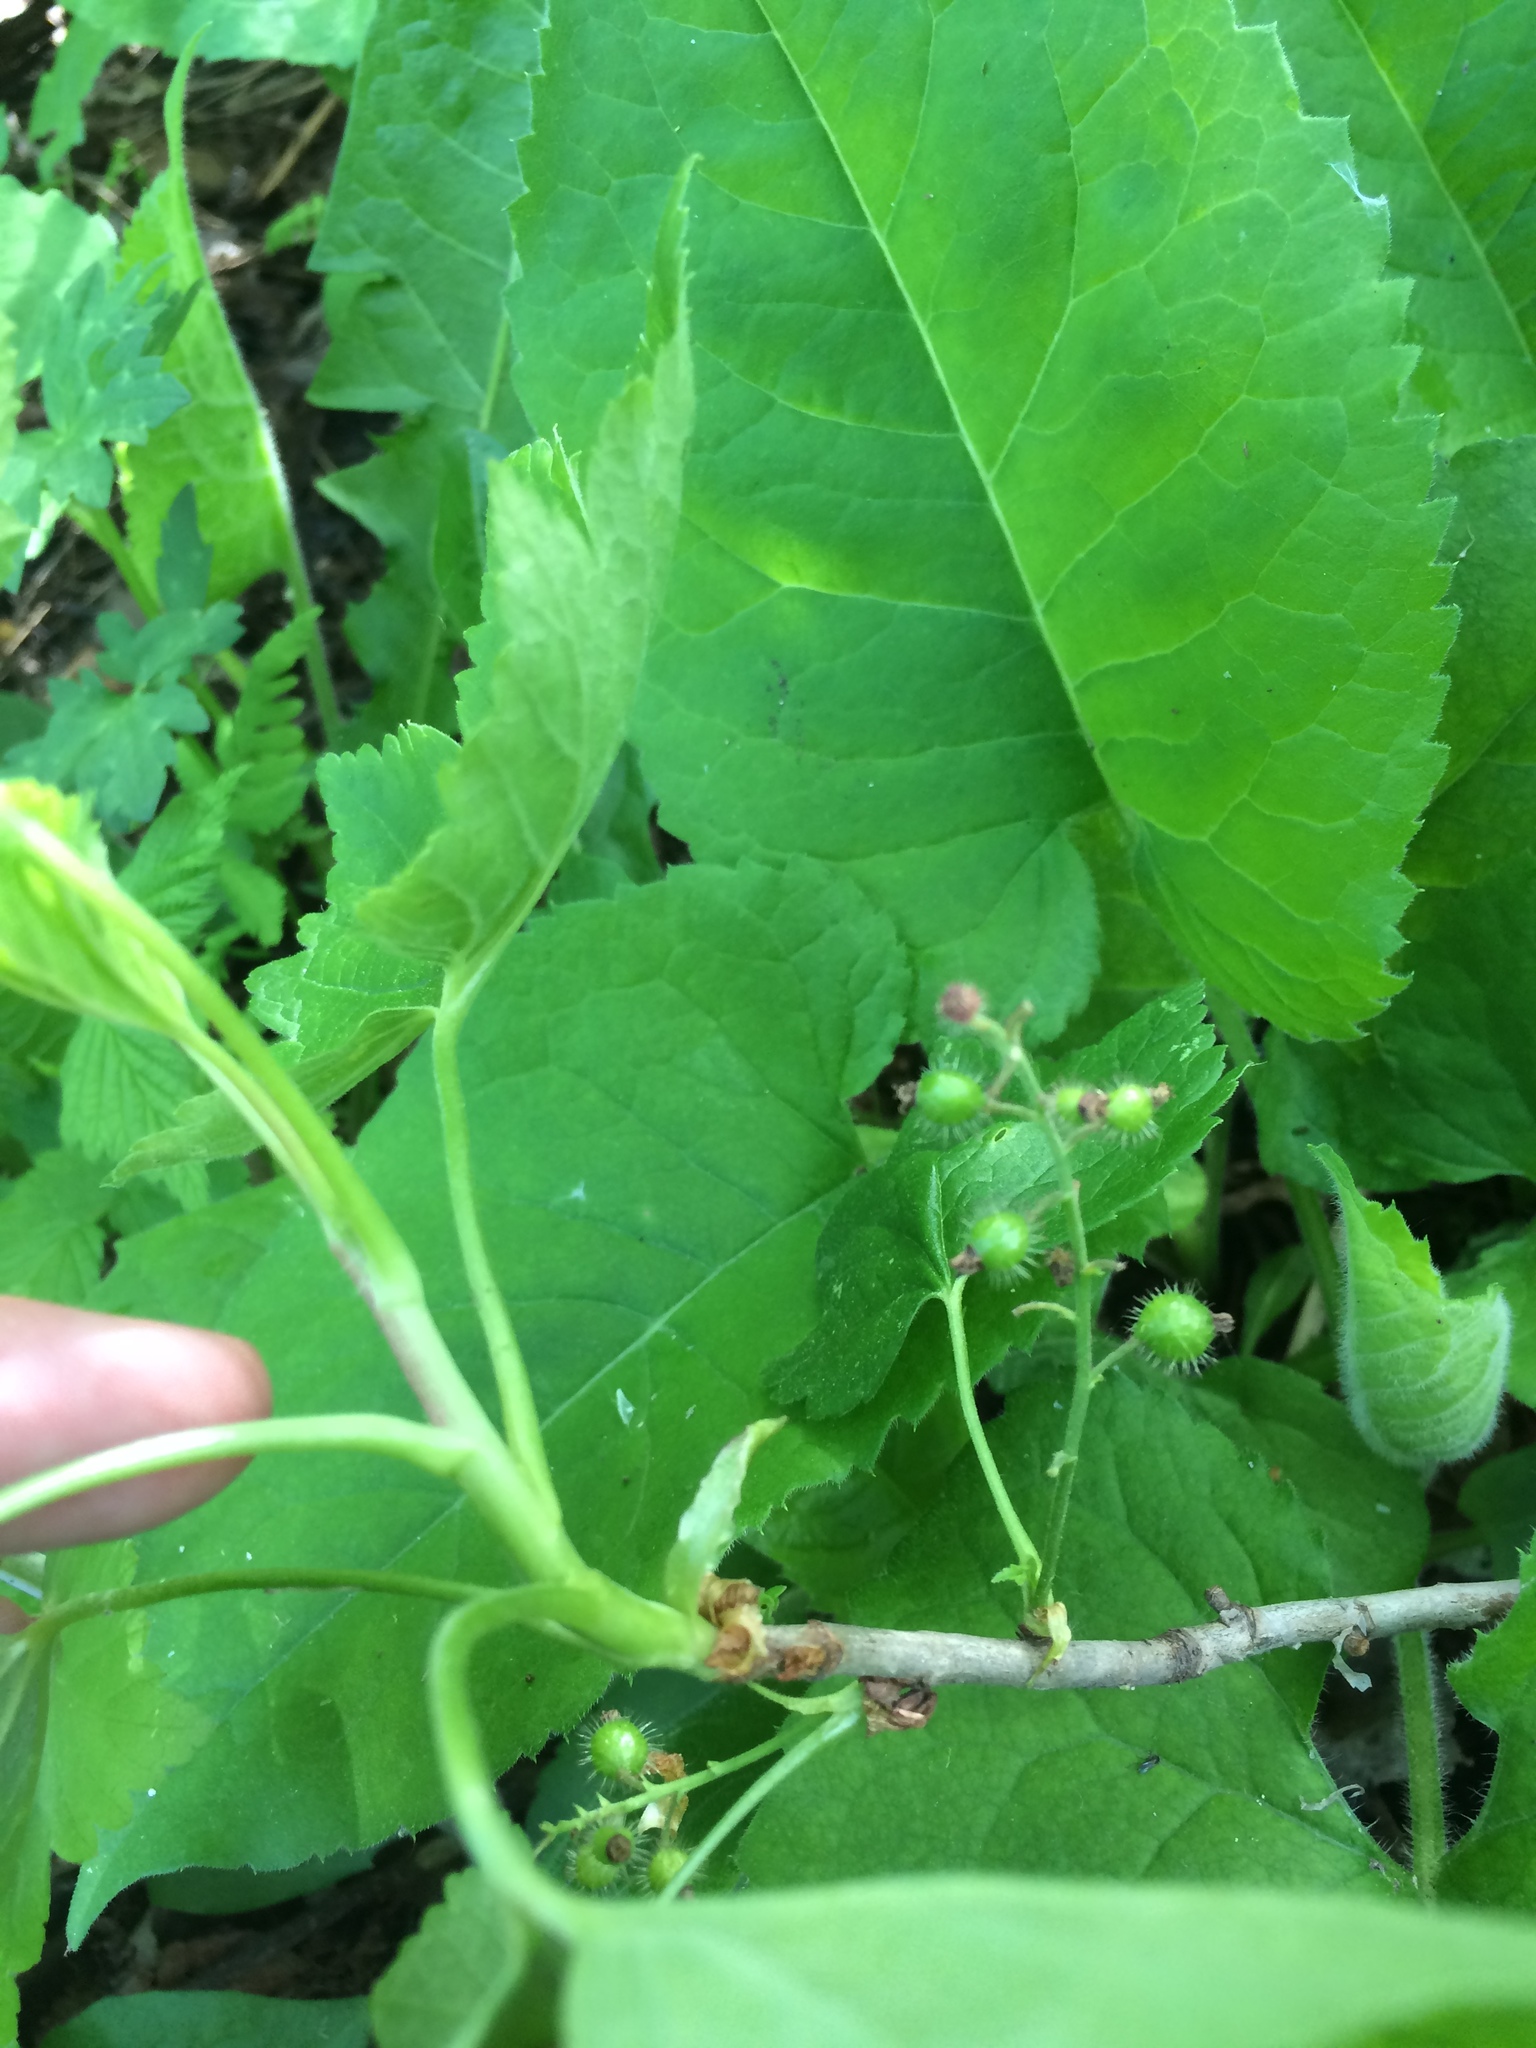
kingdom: Plantae
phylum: Tracheophyta
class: Magnoliopsida
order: Saxifragales
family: Grossulariaceae
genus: Ribes
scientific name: Ribes glandulosum
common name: Skunk currant
